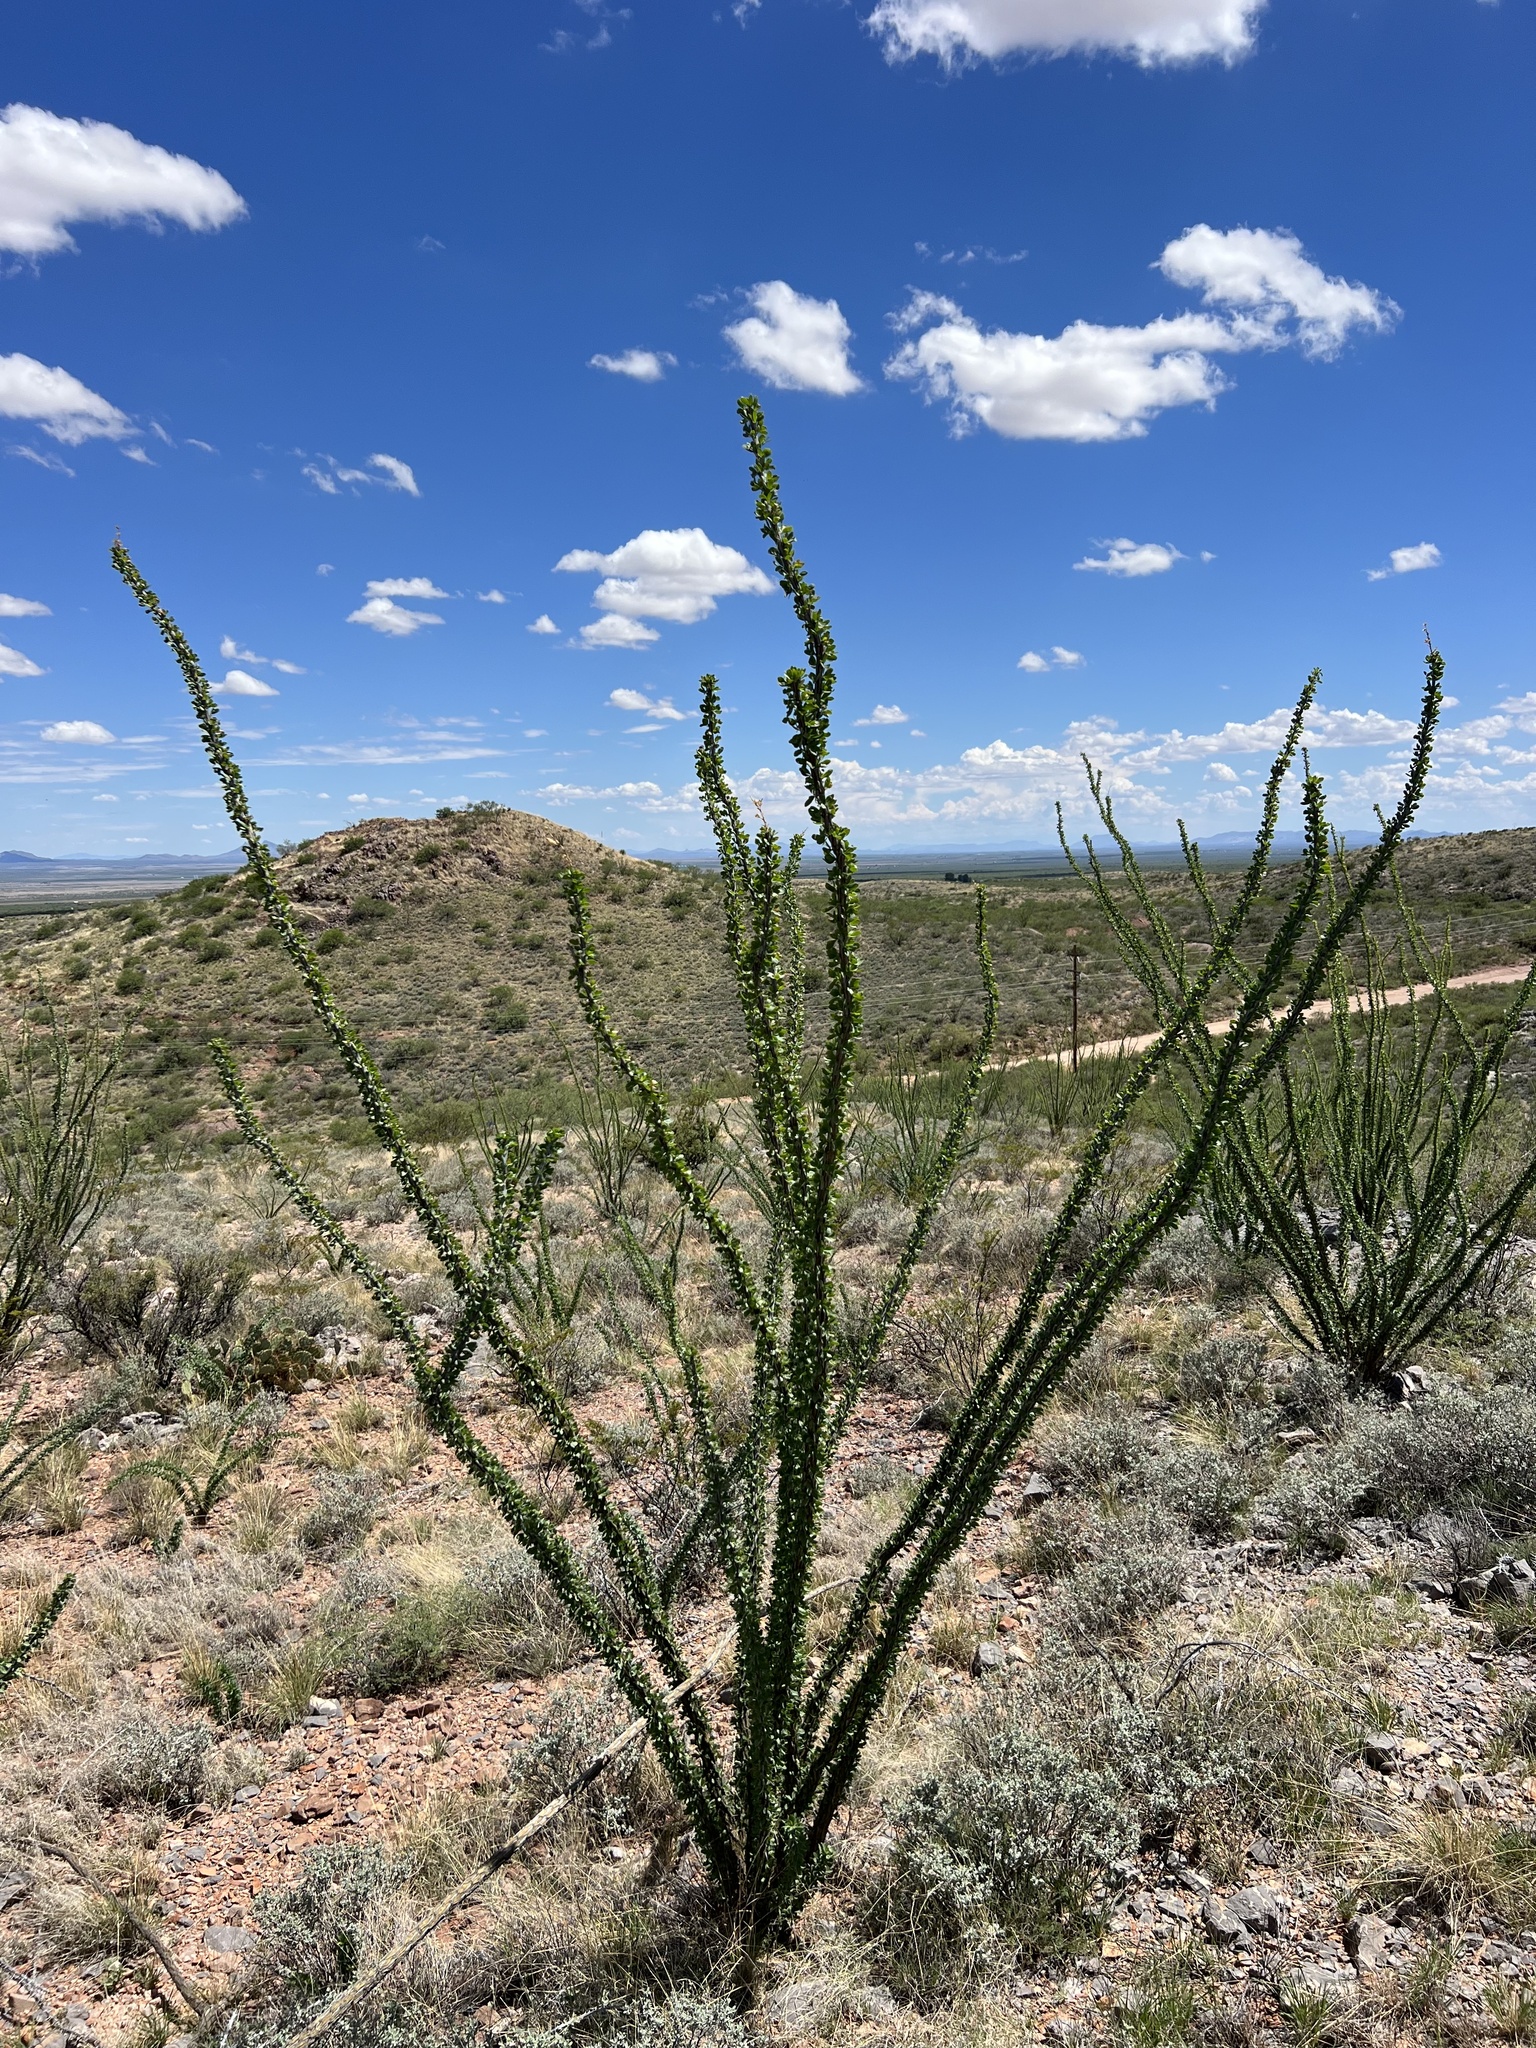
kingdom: Plantae
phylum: Tracheophyta
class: Magnoliopsida
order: Ericales
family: Fouquieriaceae
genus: Fouquieria
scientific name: Fouquieria splendens
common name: Vine-cactus
